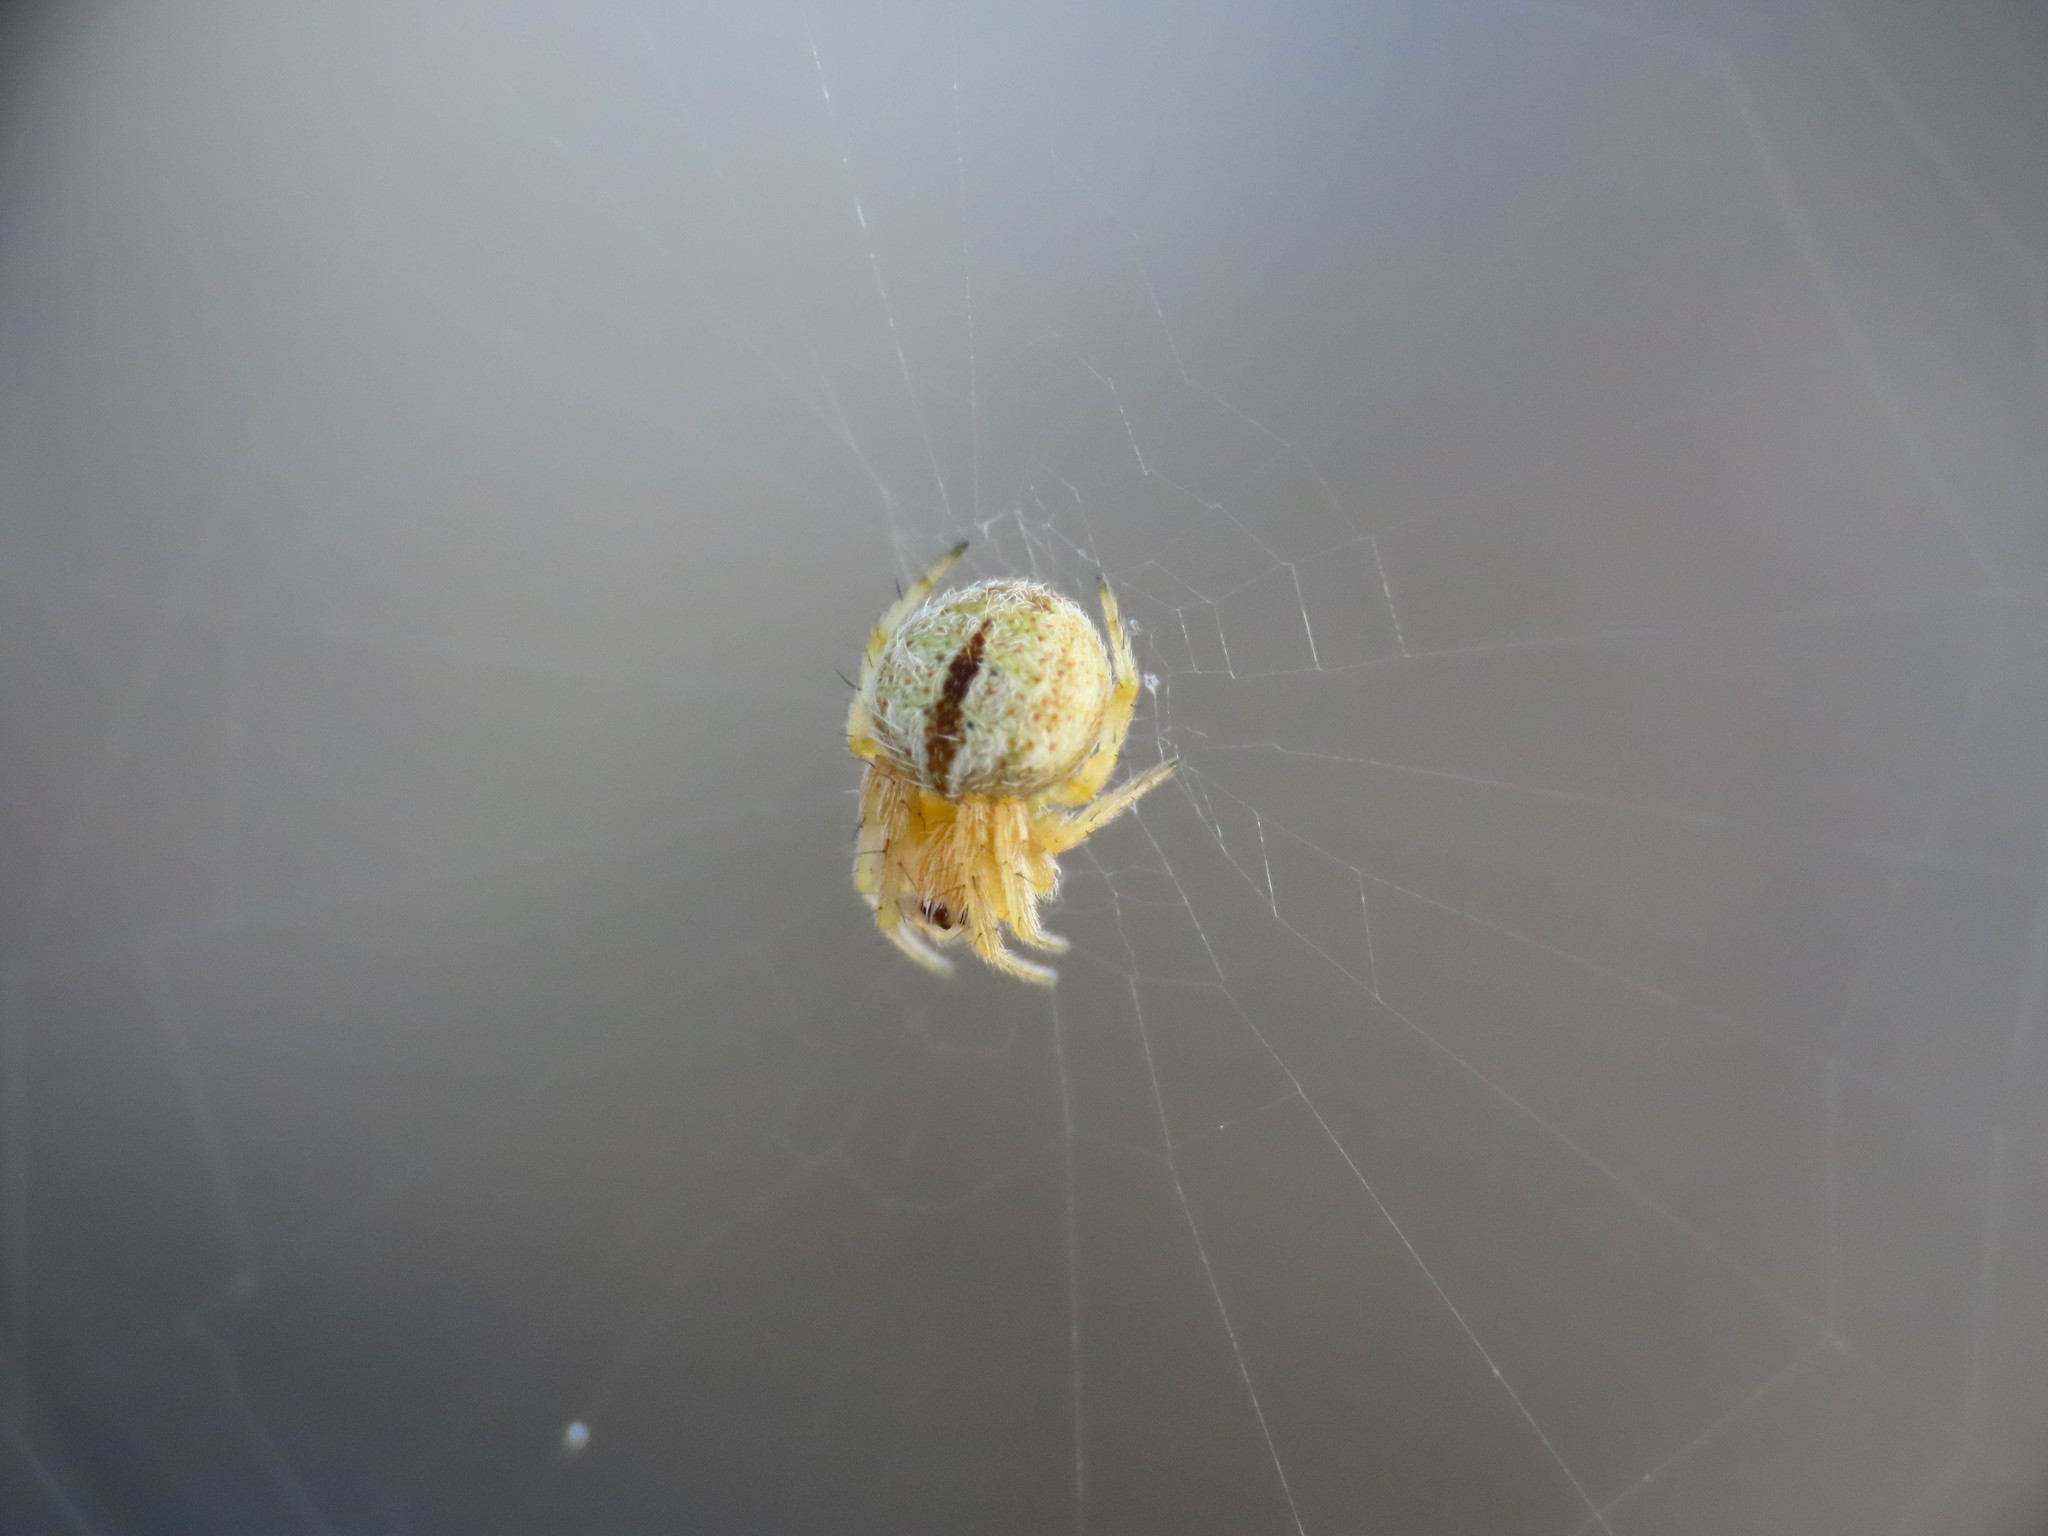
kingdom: Animalia
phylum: Arthropoda
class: Arachnida
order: Araneae
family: Araneidae
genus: Agalenatea
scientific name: Agalenatea redii
